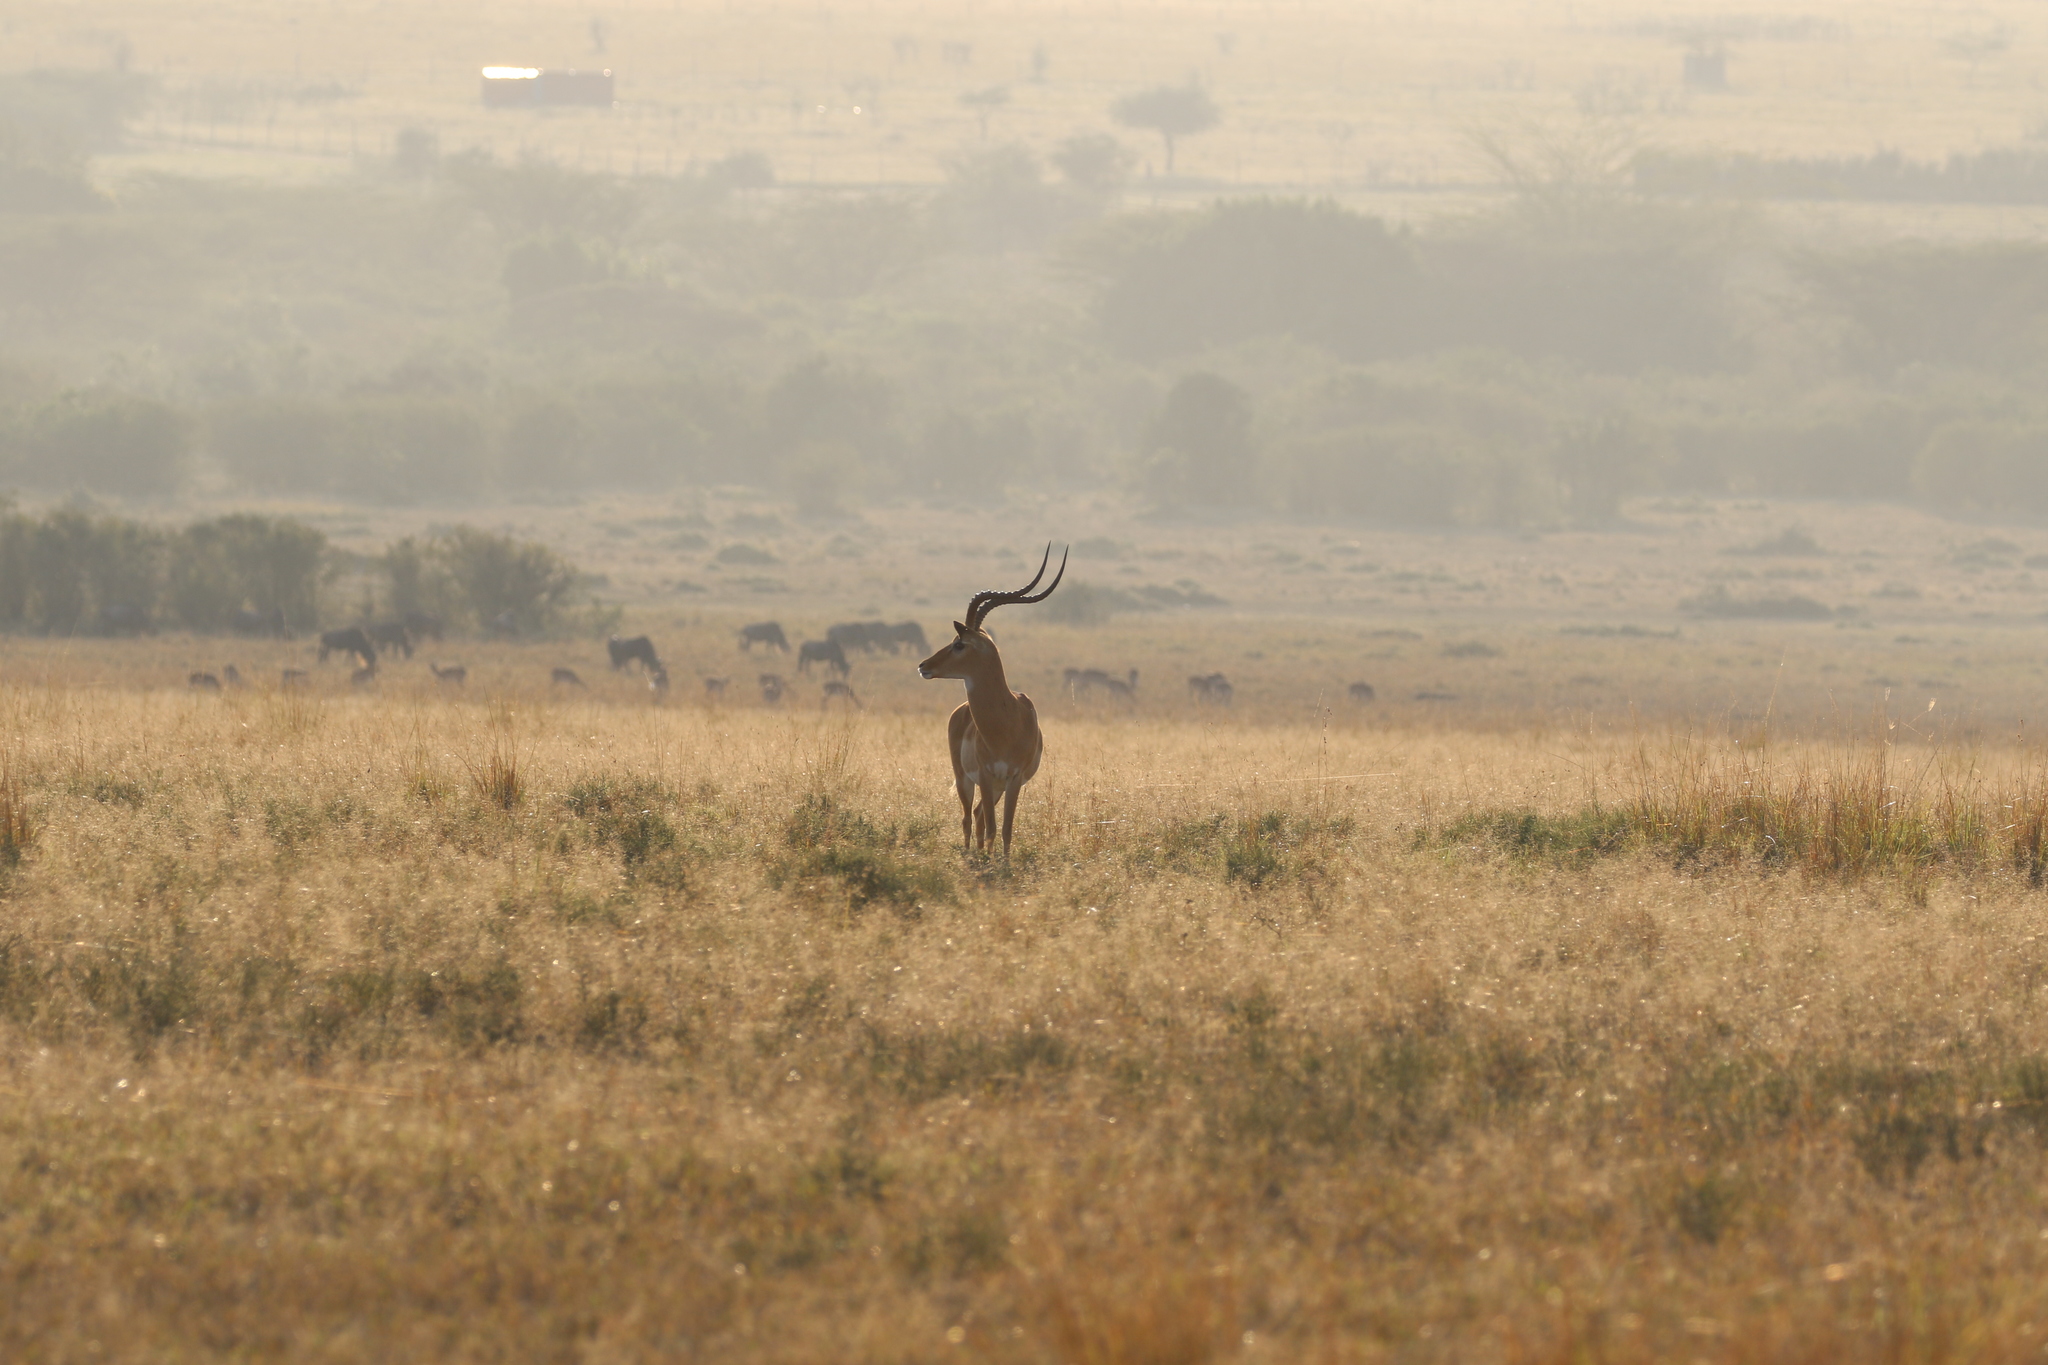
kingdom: Animalia
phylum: Chordata
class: Mammalia
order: Artiodactyla
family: Bovidae
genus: Aepyceros
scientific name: Aepyceros melampus
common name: Impala
